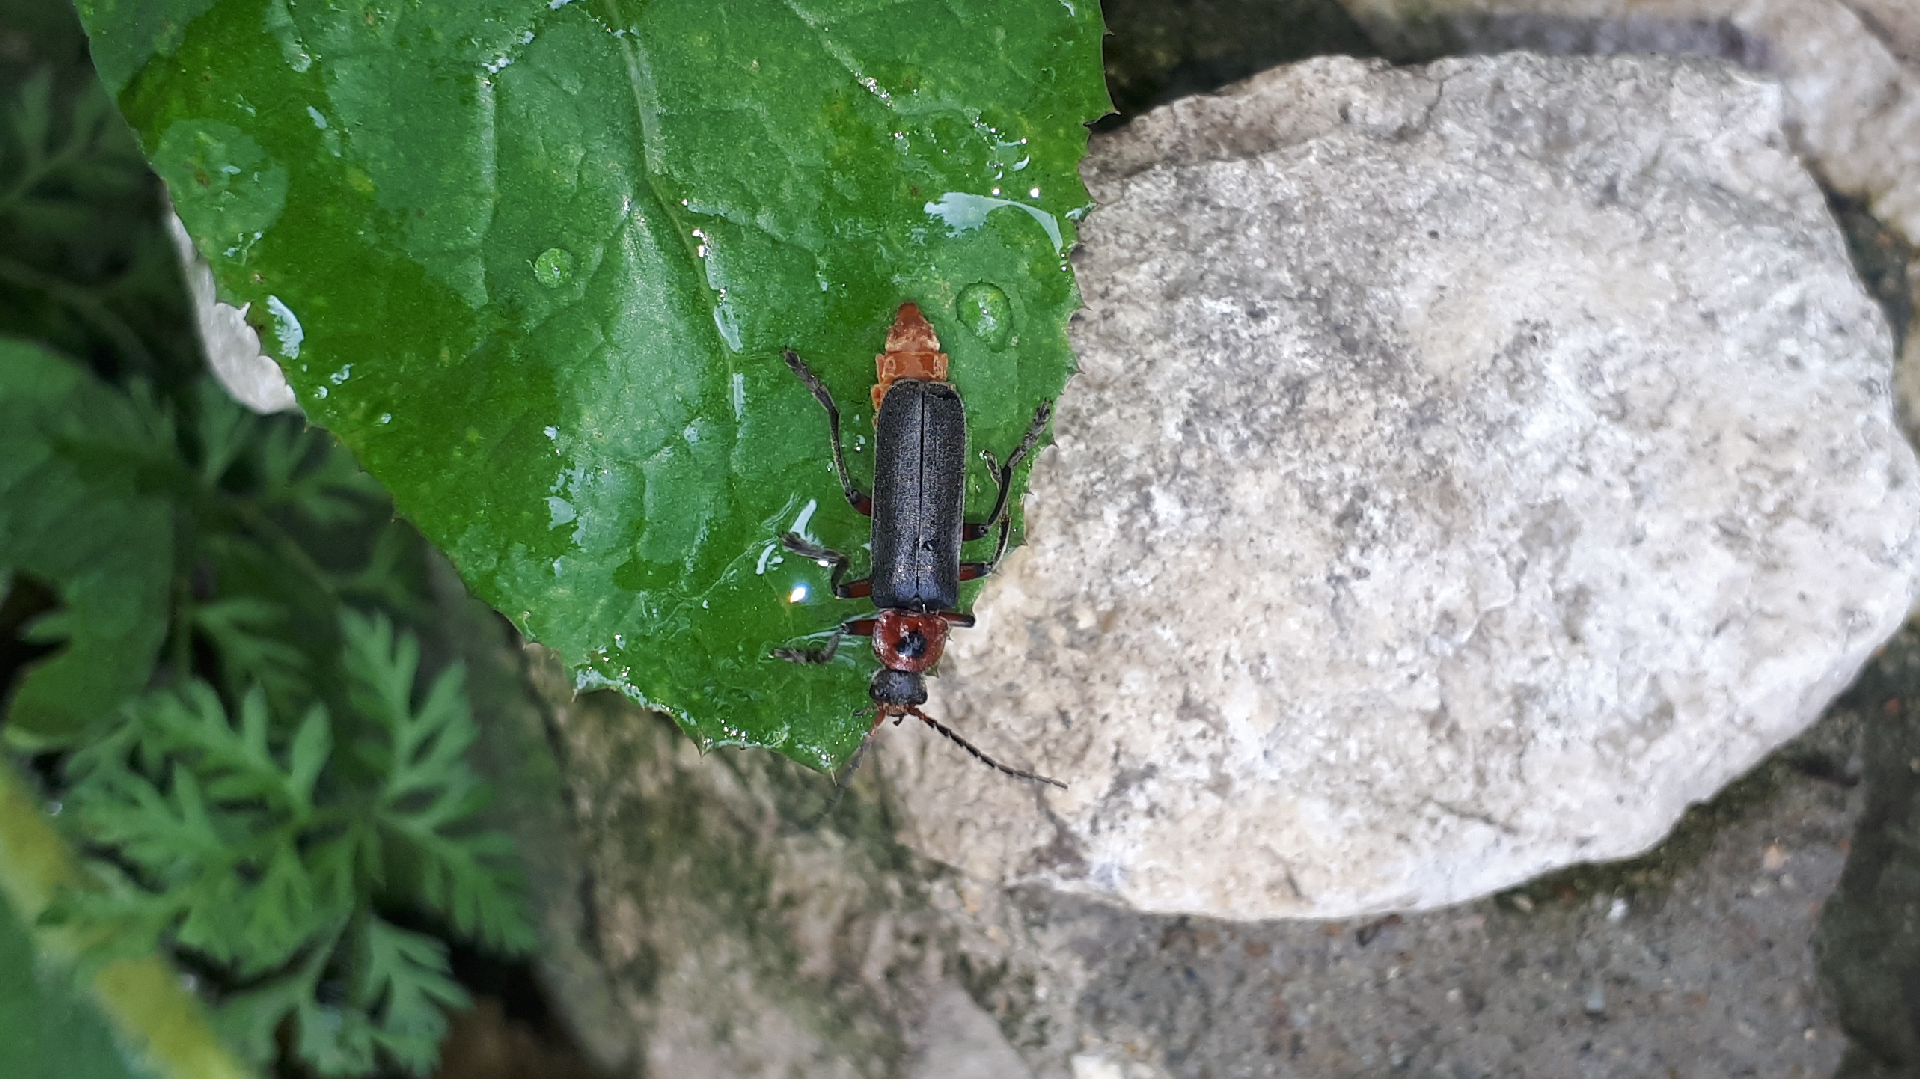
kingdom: Animalia
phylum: Arthropoda
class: Insecta
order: Coleoptera
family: Cantharidae
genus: Cantharis
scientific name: Cantharis rustica
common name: Soldier beetle
